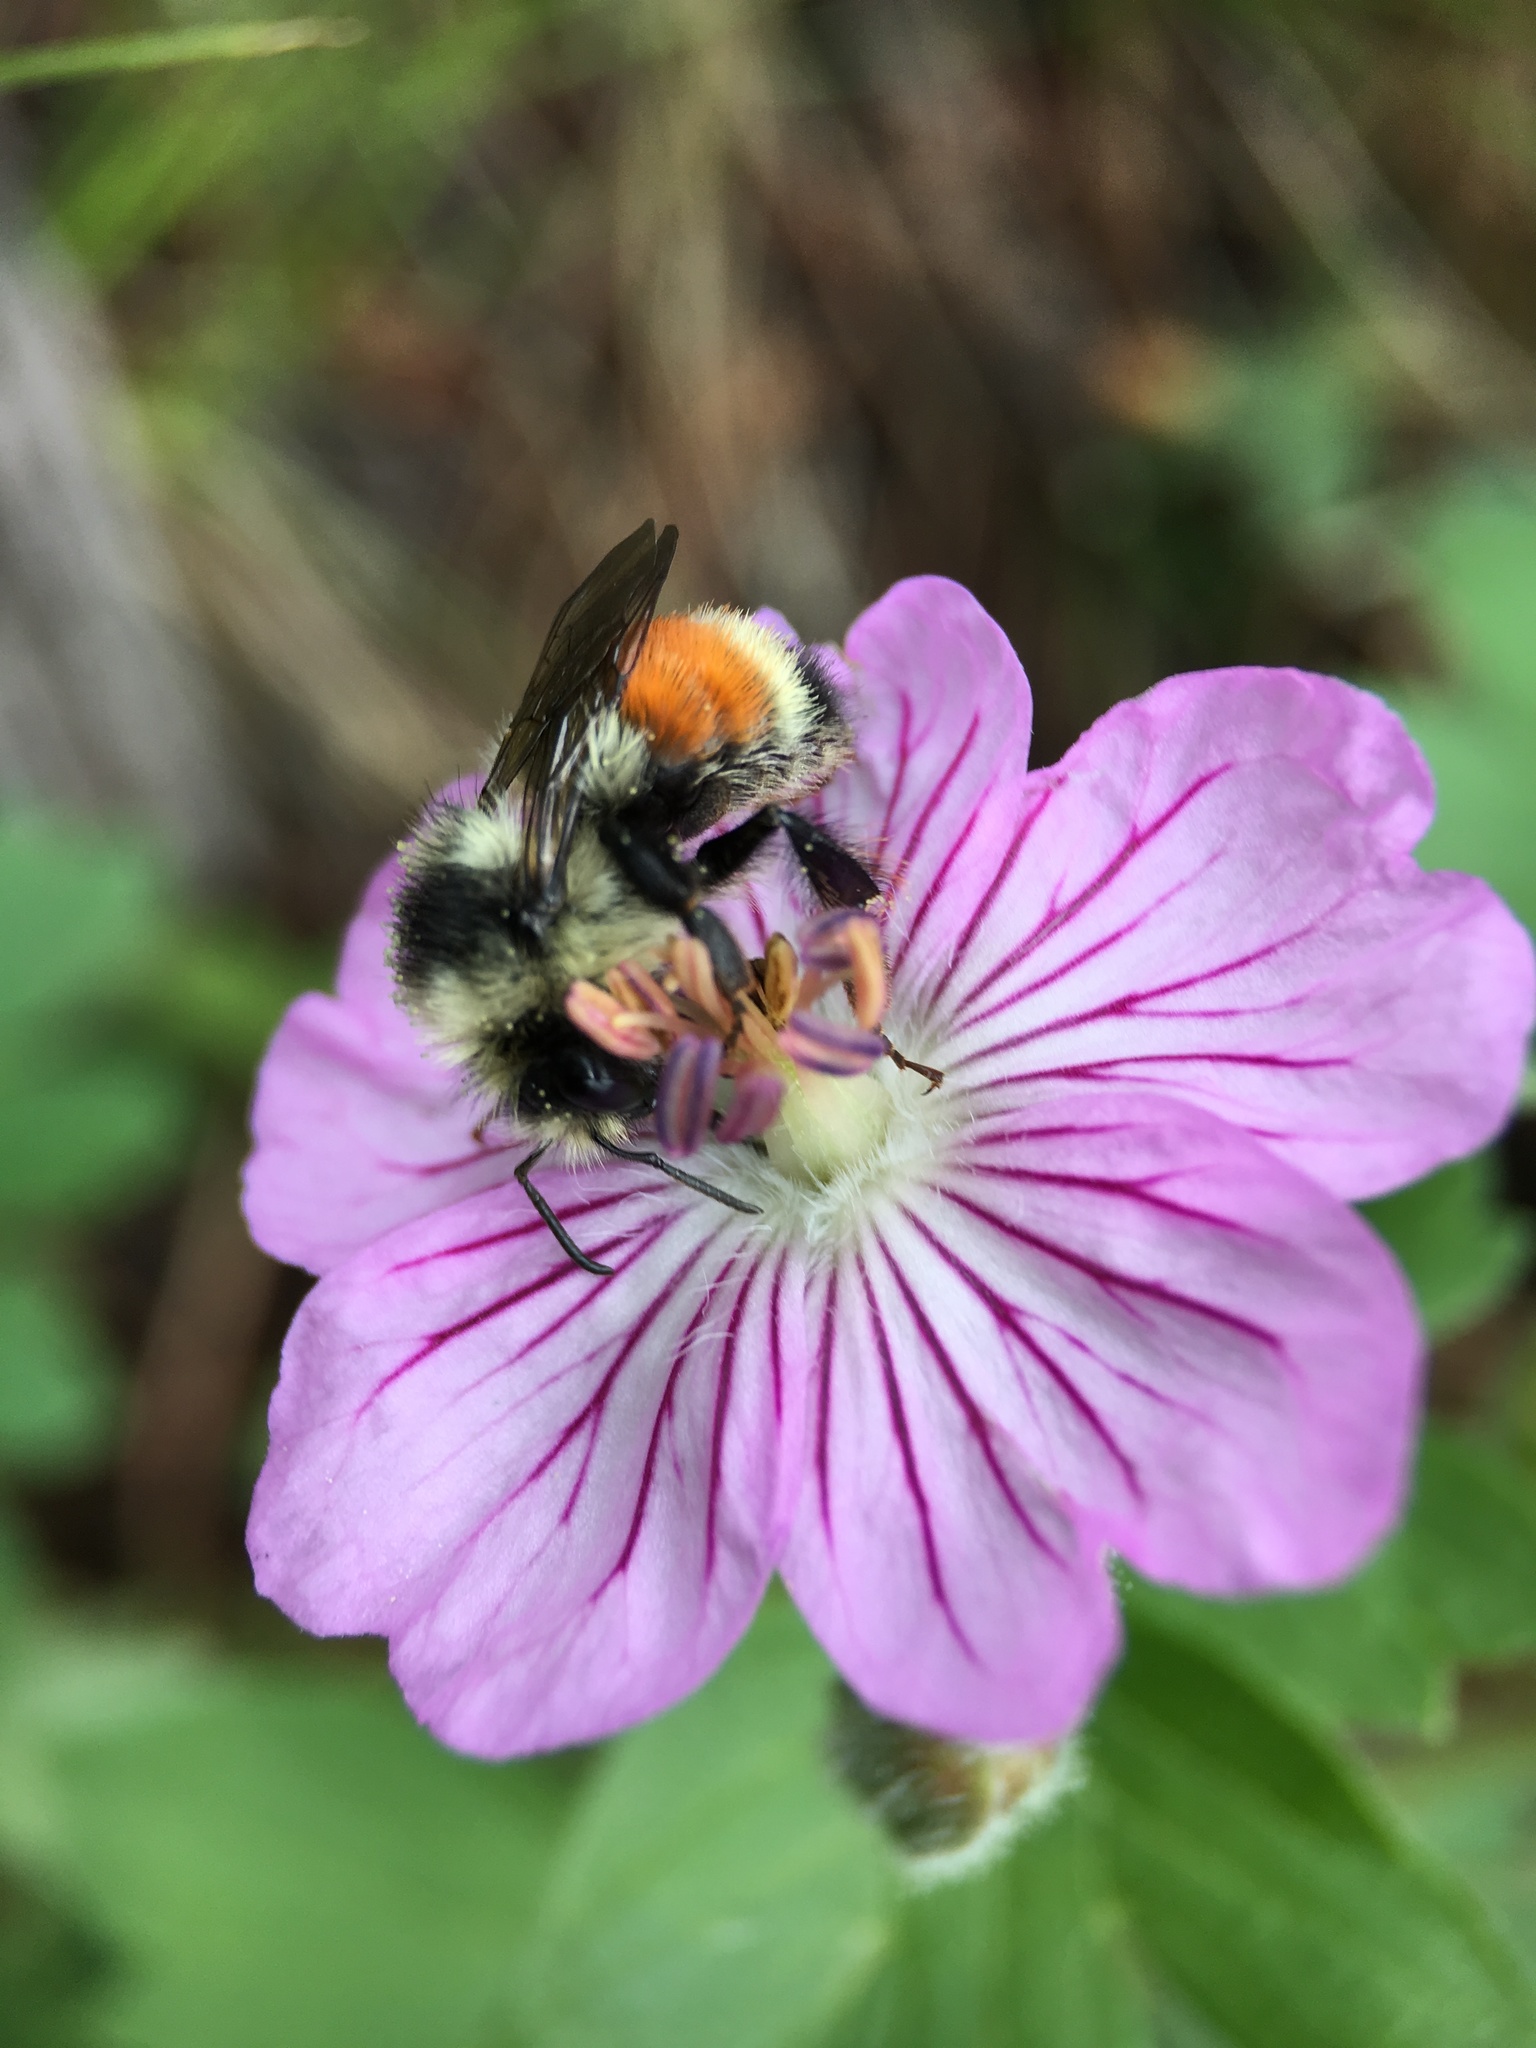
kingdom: Animalia
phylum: Arthropoda
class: Insecta
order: Hymenoptera
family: Apidae
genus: Bombus
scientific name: Bombus bifarius
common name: Two form bumble bee
